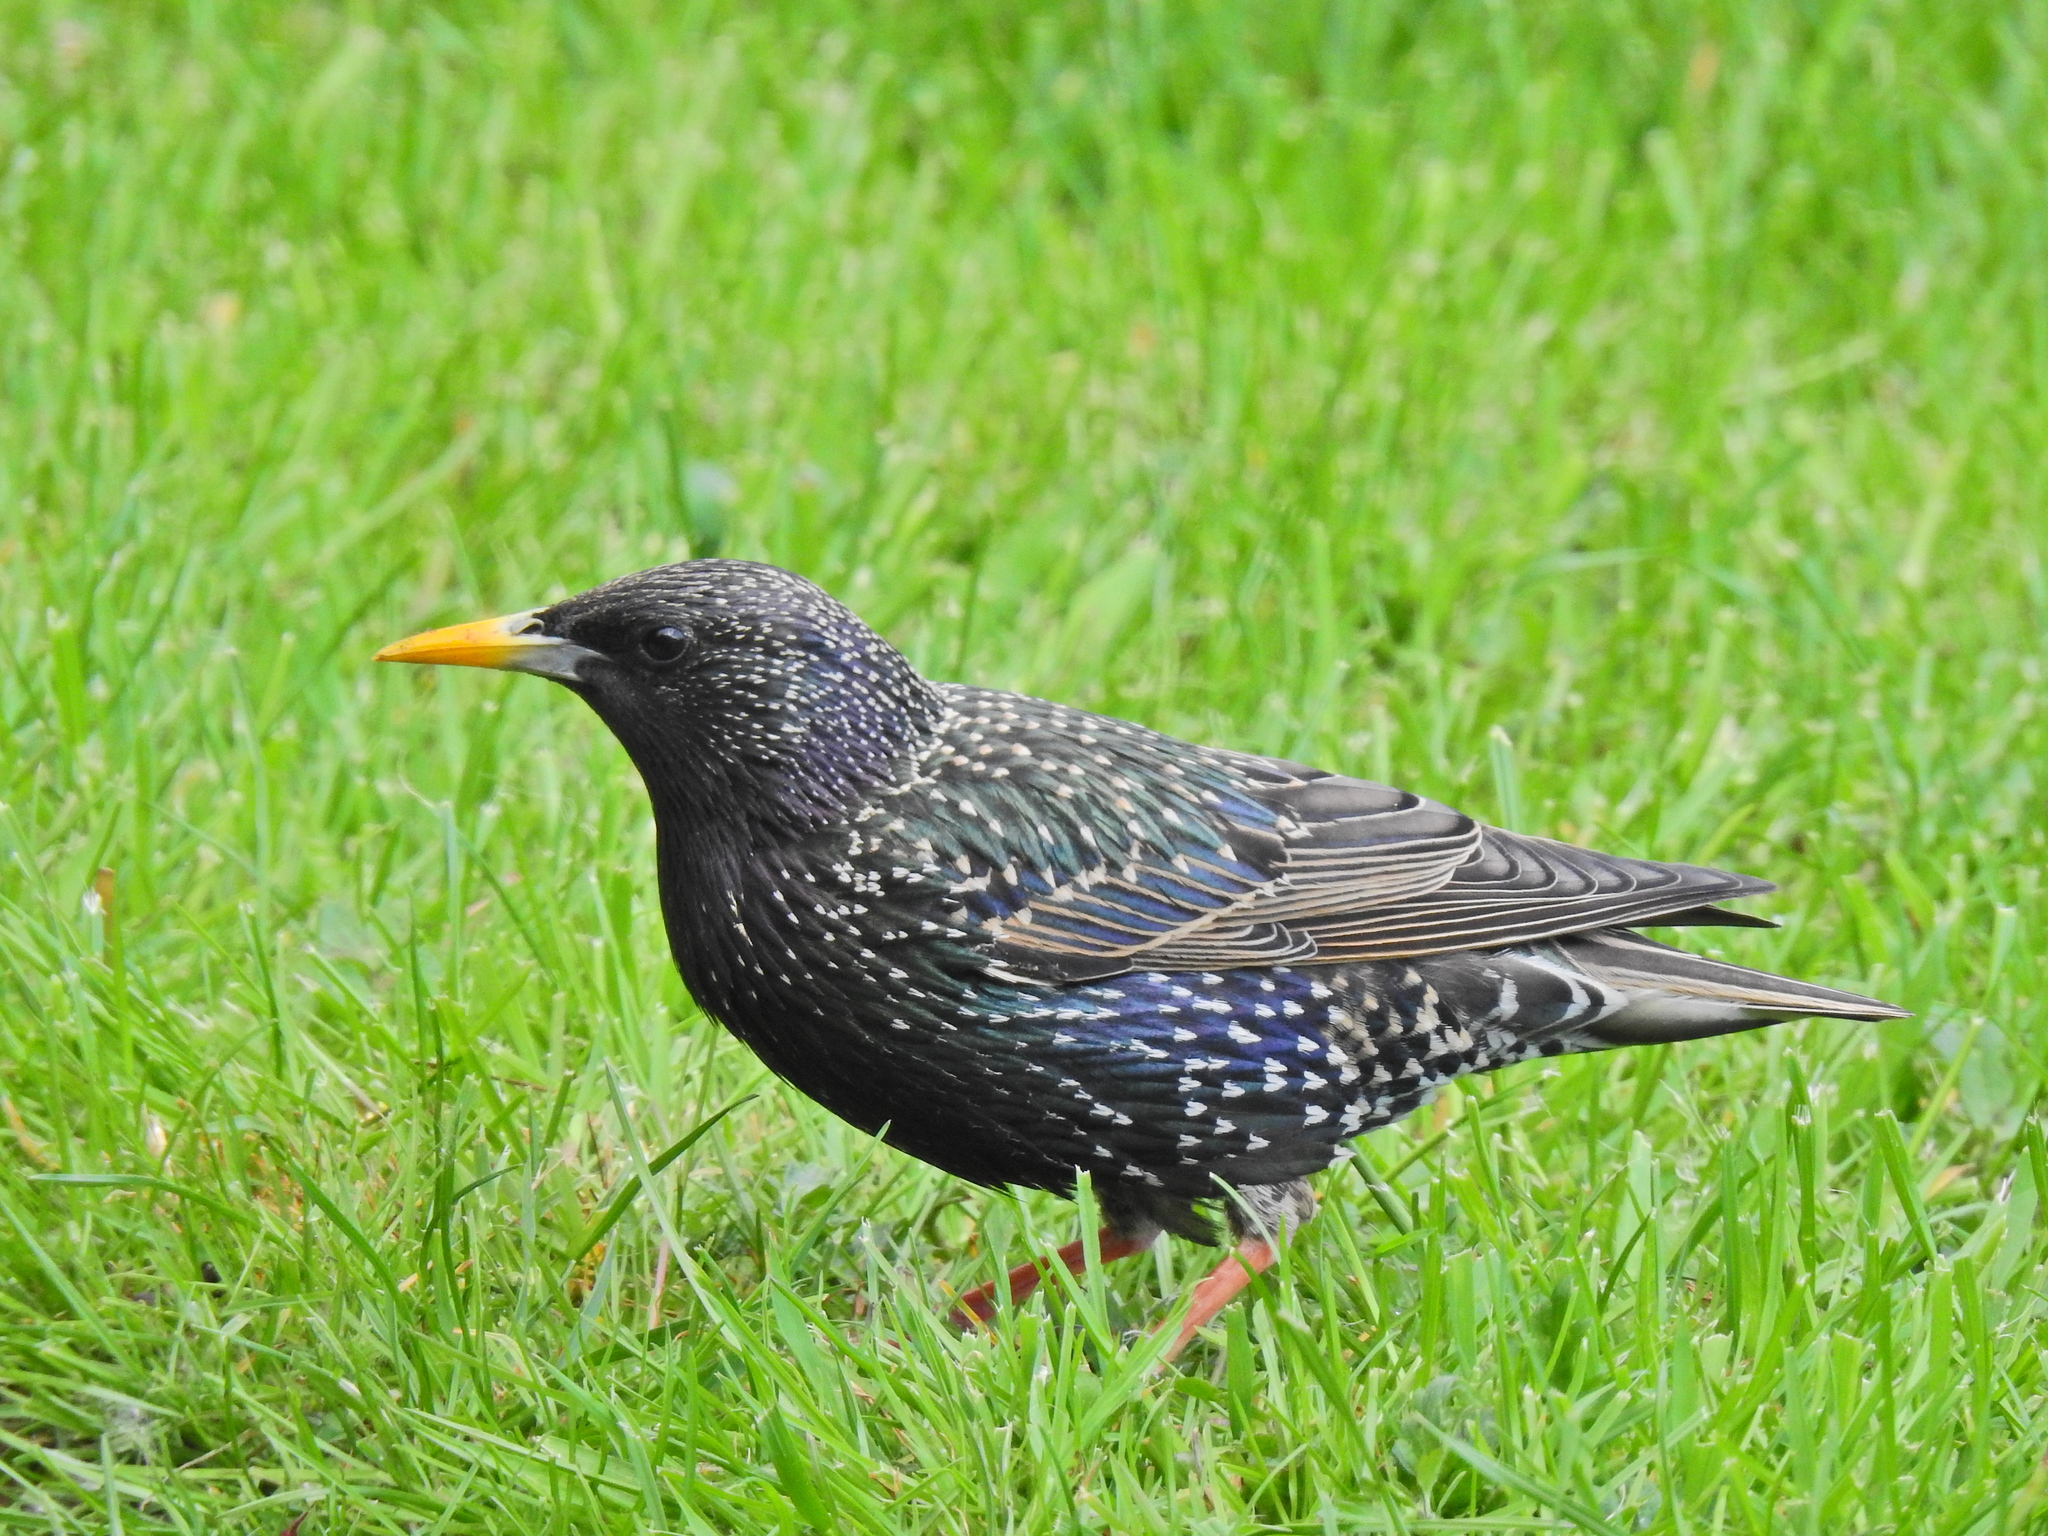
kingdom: Animalia
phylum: Chordata
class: Aves
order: Passeriformes
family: Sturnidae
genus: Sturnus
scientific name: Sturnus vulgaris
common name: Common starling
